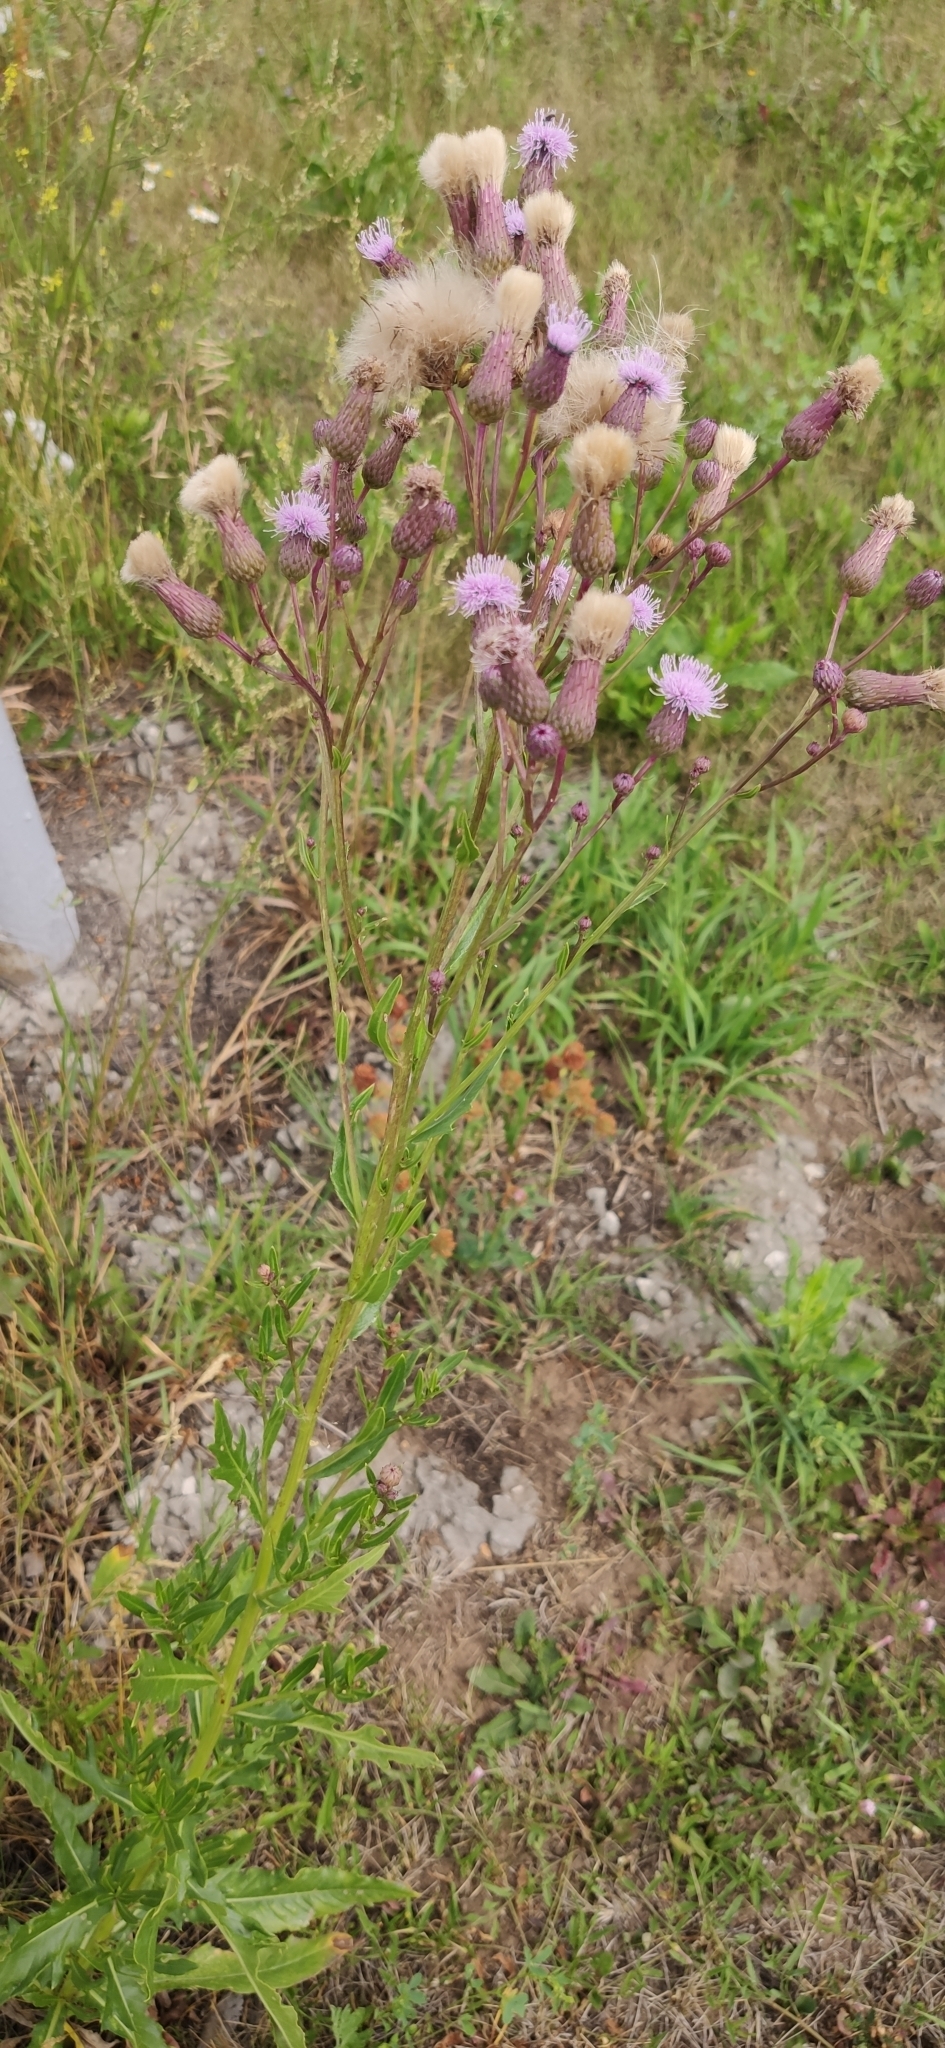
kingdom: Plantae
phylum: Tracheophyta
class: Magnoliopsida
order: Asterales
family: Asteraceae
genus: Cirsium
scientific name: Cirsium arvense
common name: Creeping thistle
